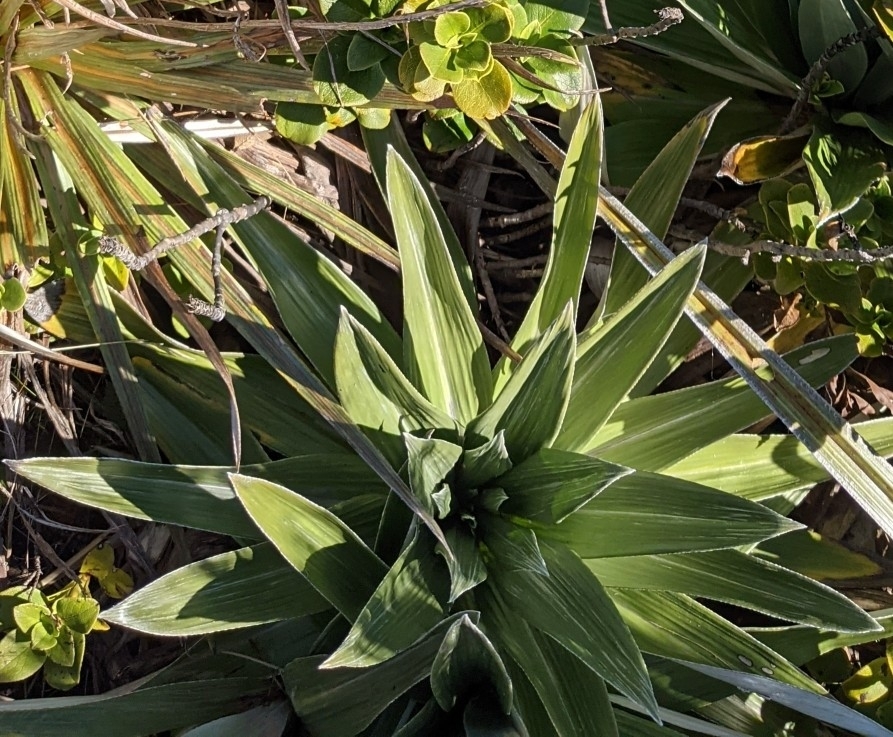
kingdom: Plantae
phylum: Tracheophyta
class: Magnoliopsida
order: Asterales
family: Asteraceae
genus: Celmisia
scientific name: Celmisia semicordata
